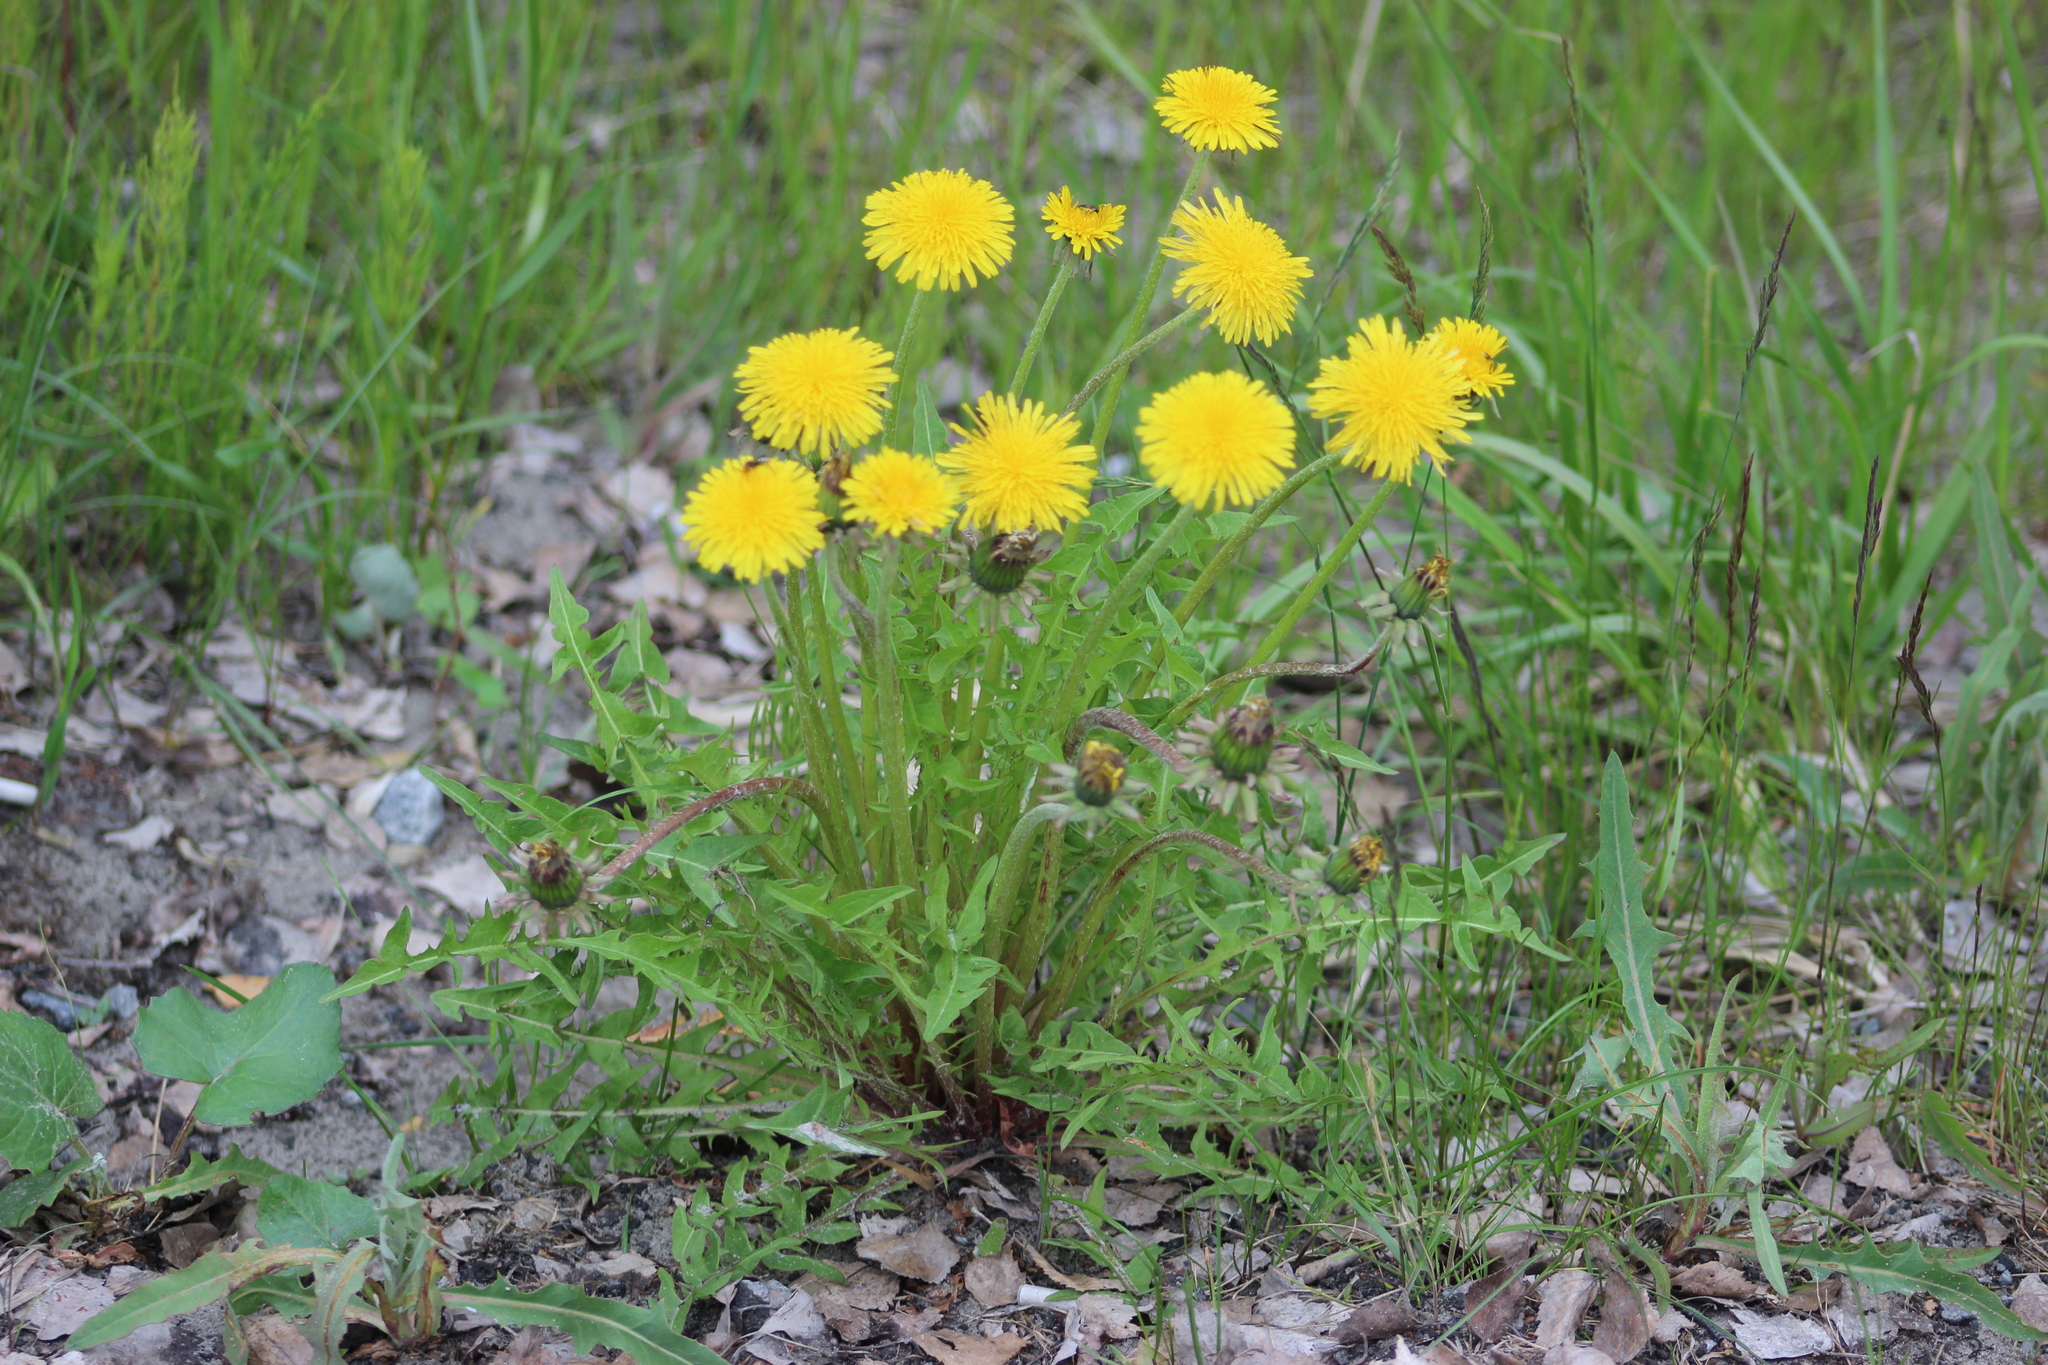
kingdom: Plantae
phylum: Tracheophyta
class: Magnoliopsida
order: Asterales
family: Asteraceae
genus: Taraxacum
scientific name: Taraxacum scariosum
